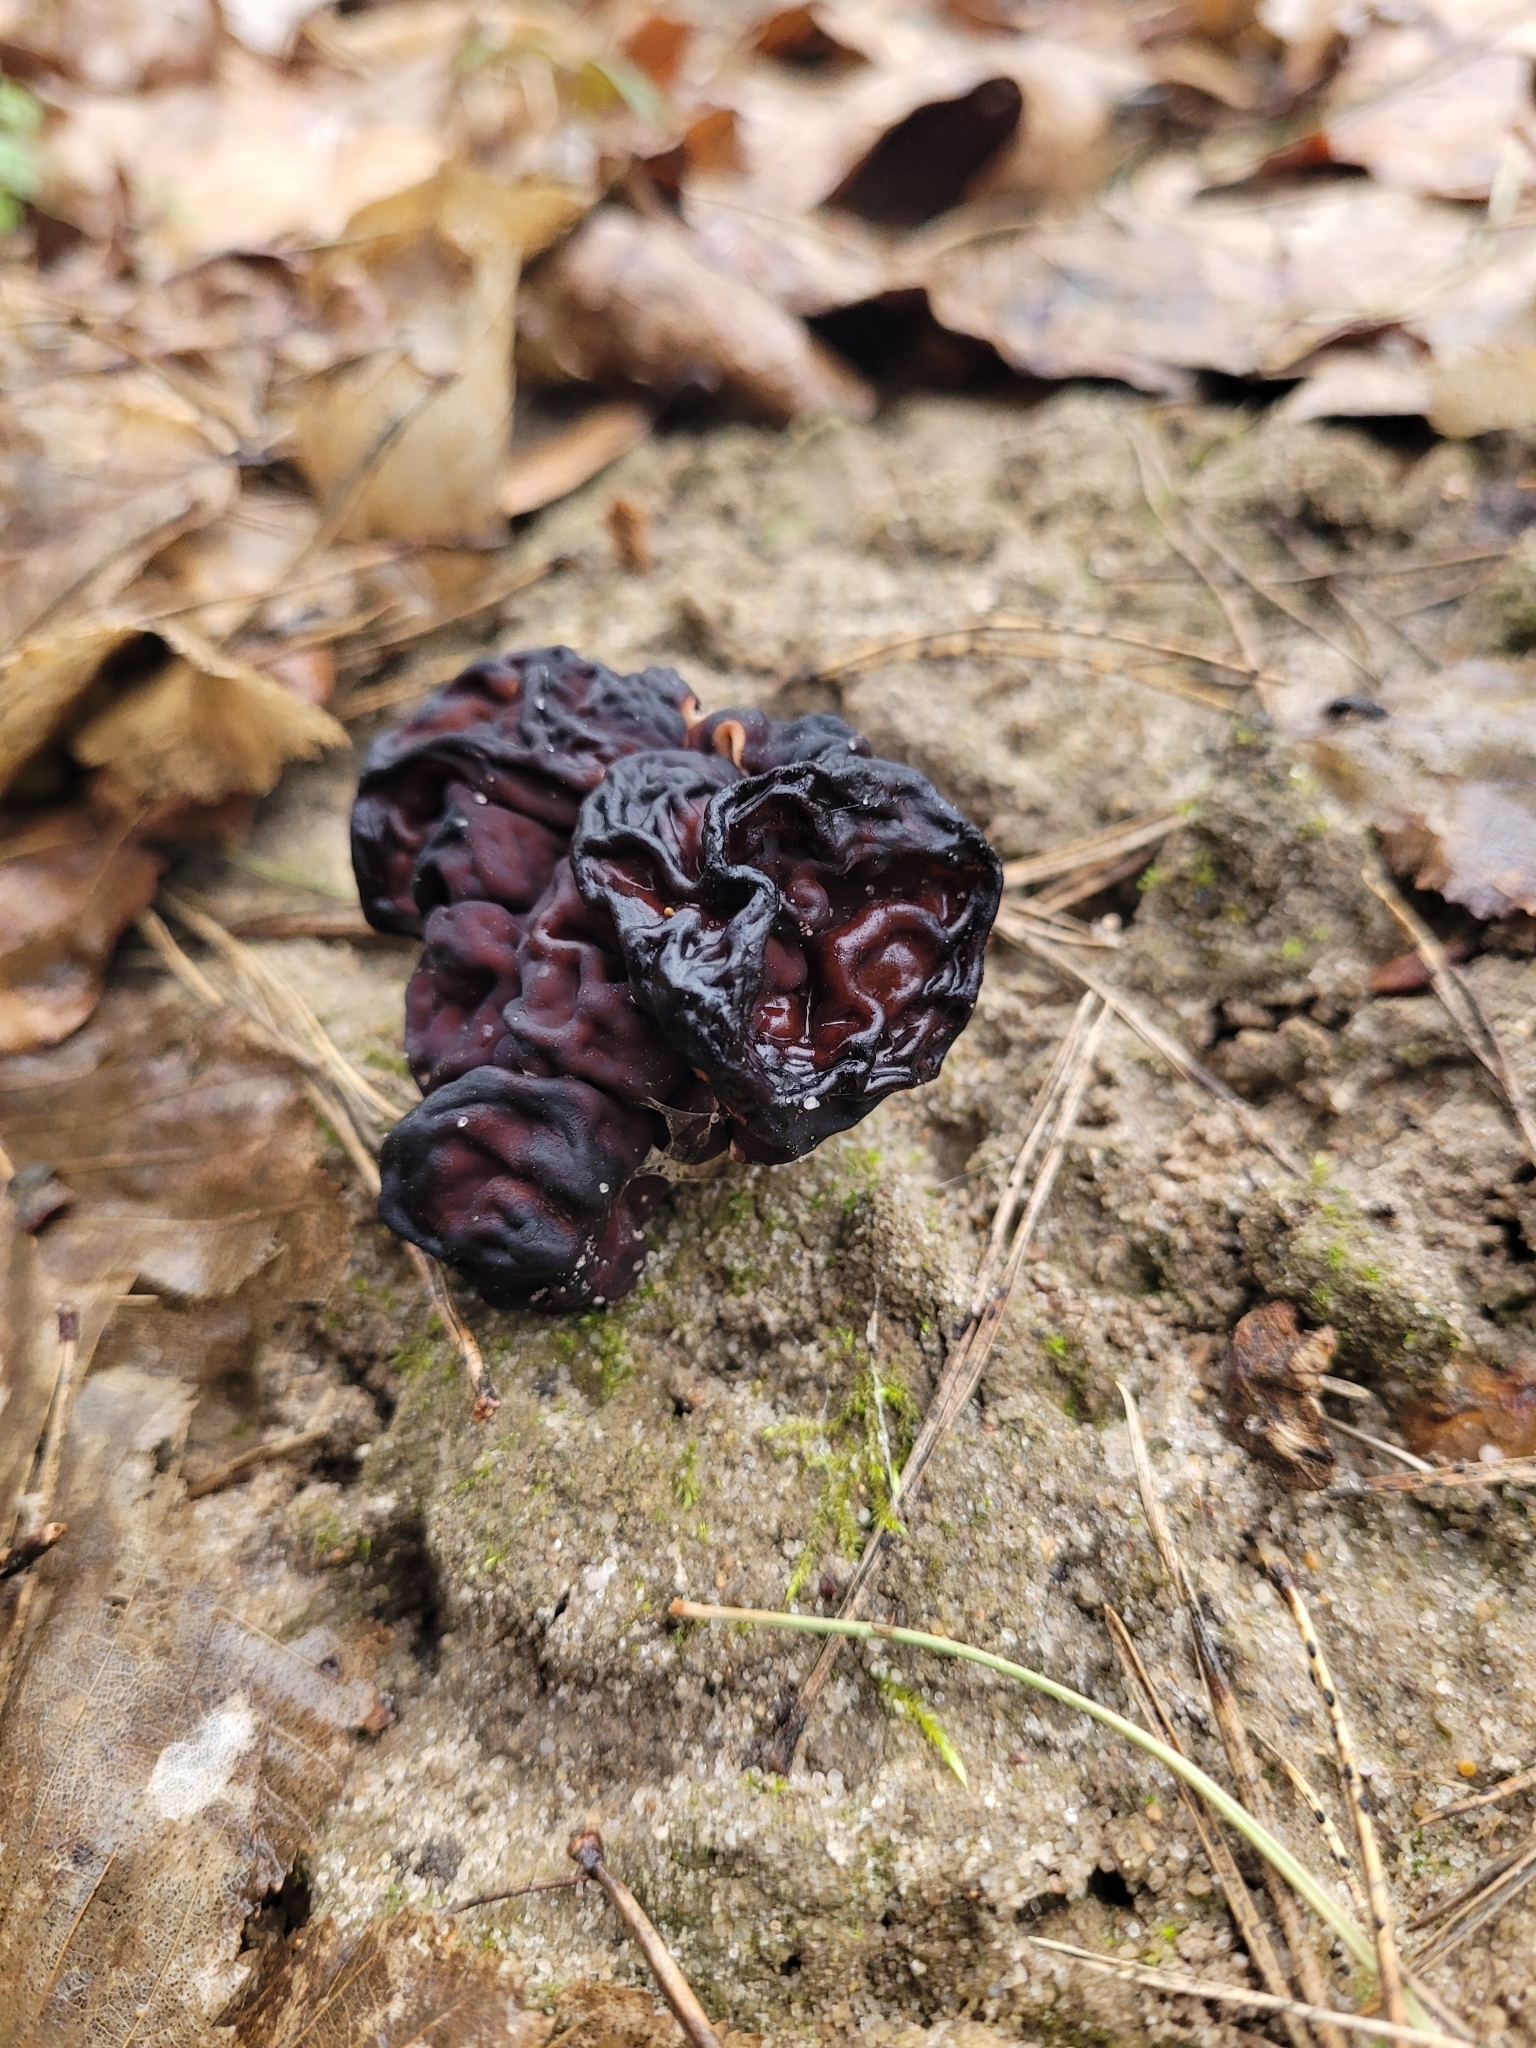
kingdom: Fungi
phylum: Ascomycota
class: Pezizomycetes
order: Pezizales
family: Discinaceae
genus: Gyromitra
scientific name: Gyromitra esculenta
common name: False morel
